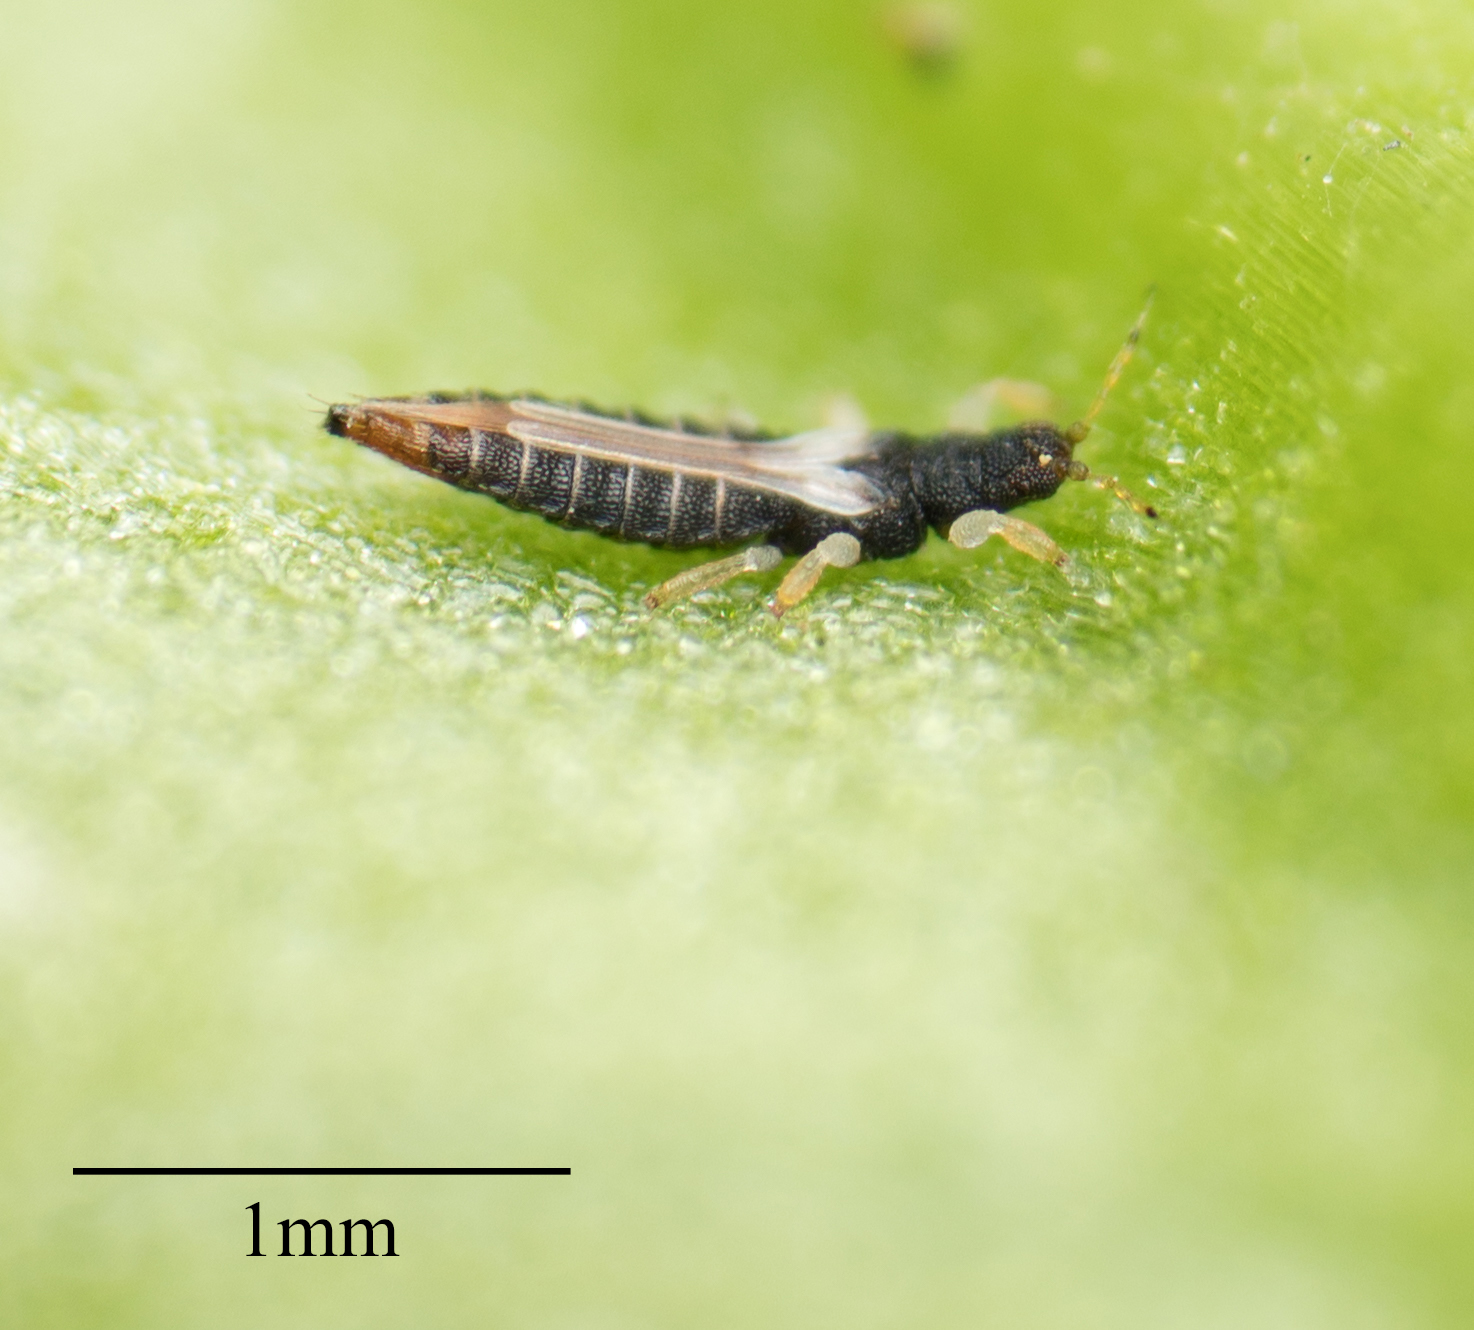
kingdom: Animalia
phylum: Arthropoda
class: Insecta
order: Thysanoptera
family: Thripidae
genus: Heliothrips
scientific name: Heliothrips haemorrhoidalis
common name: Thrips
